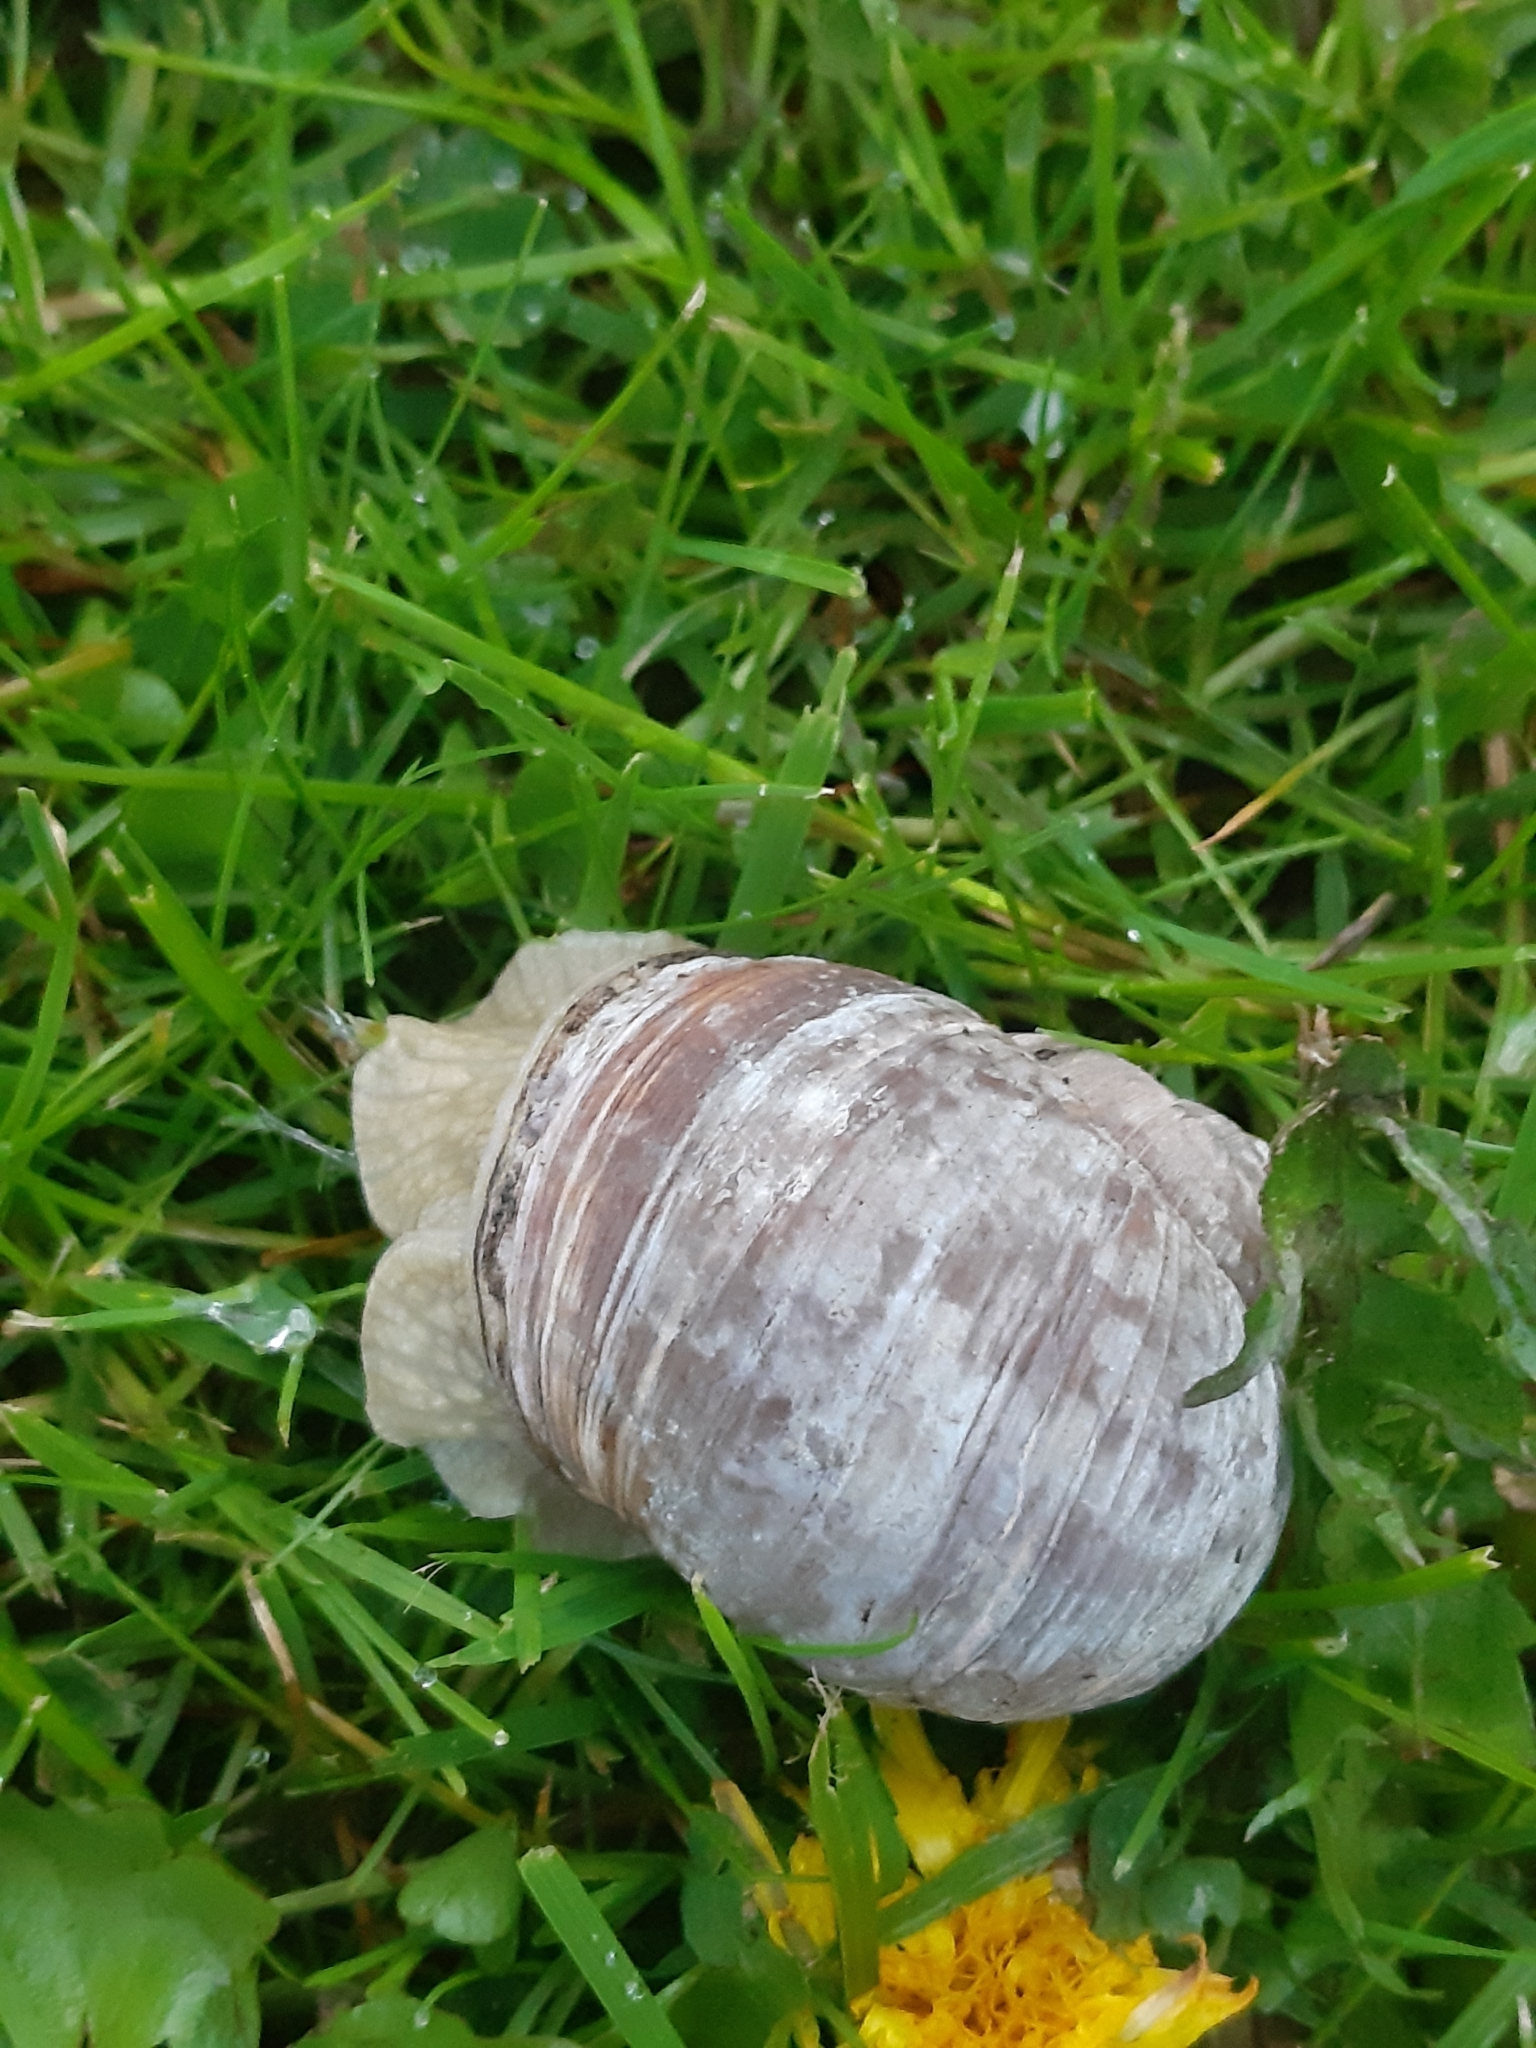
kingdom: Animalia
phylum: Mollusca
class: Gastropoda
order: Stylommatophora
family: Helicidae
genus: Helix
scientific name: Helix pomatia
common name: Roman snail
